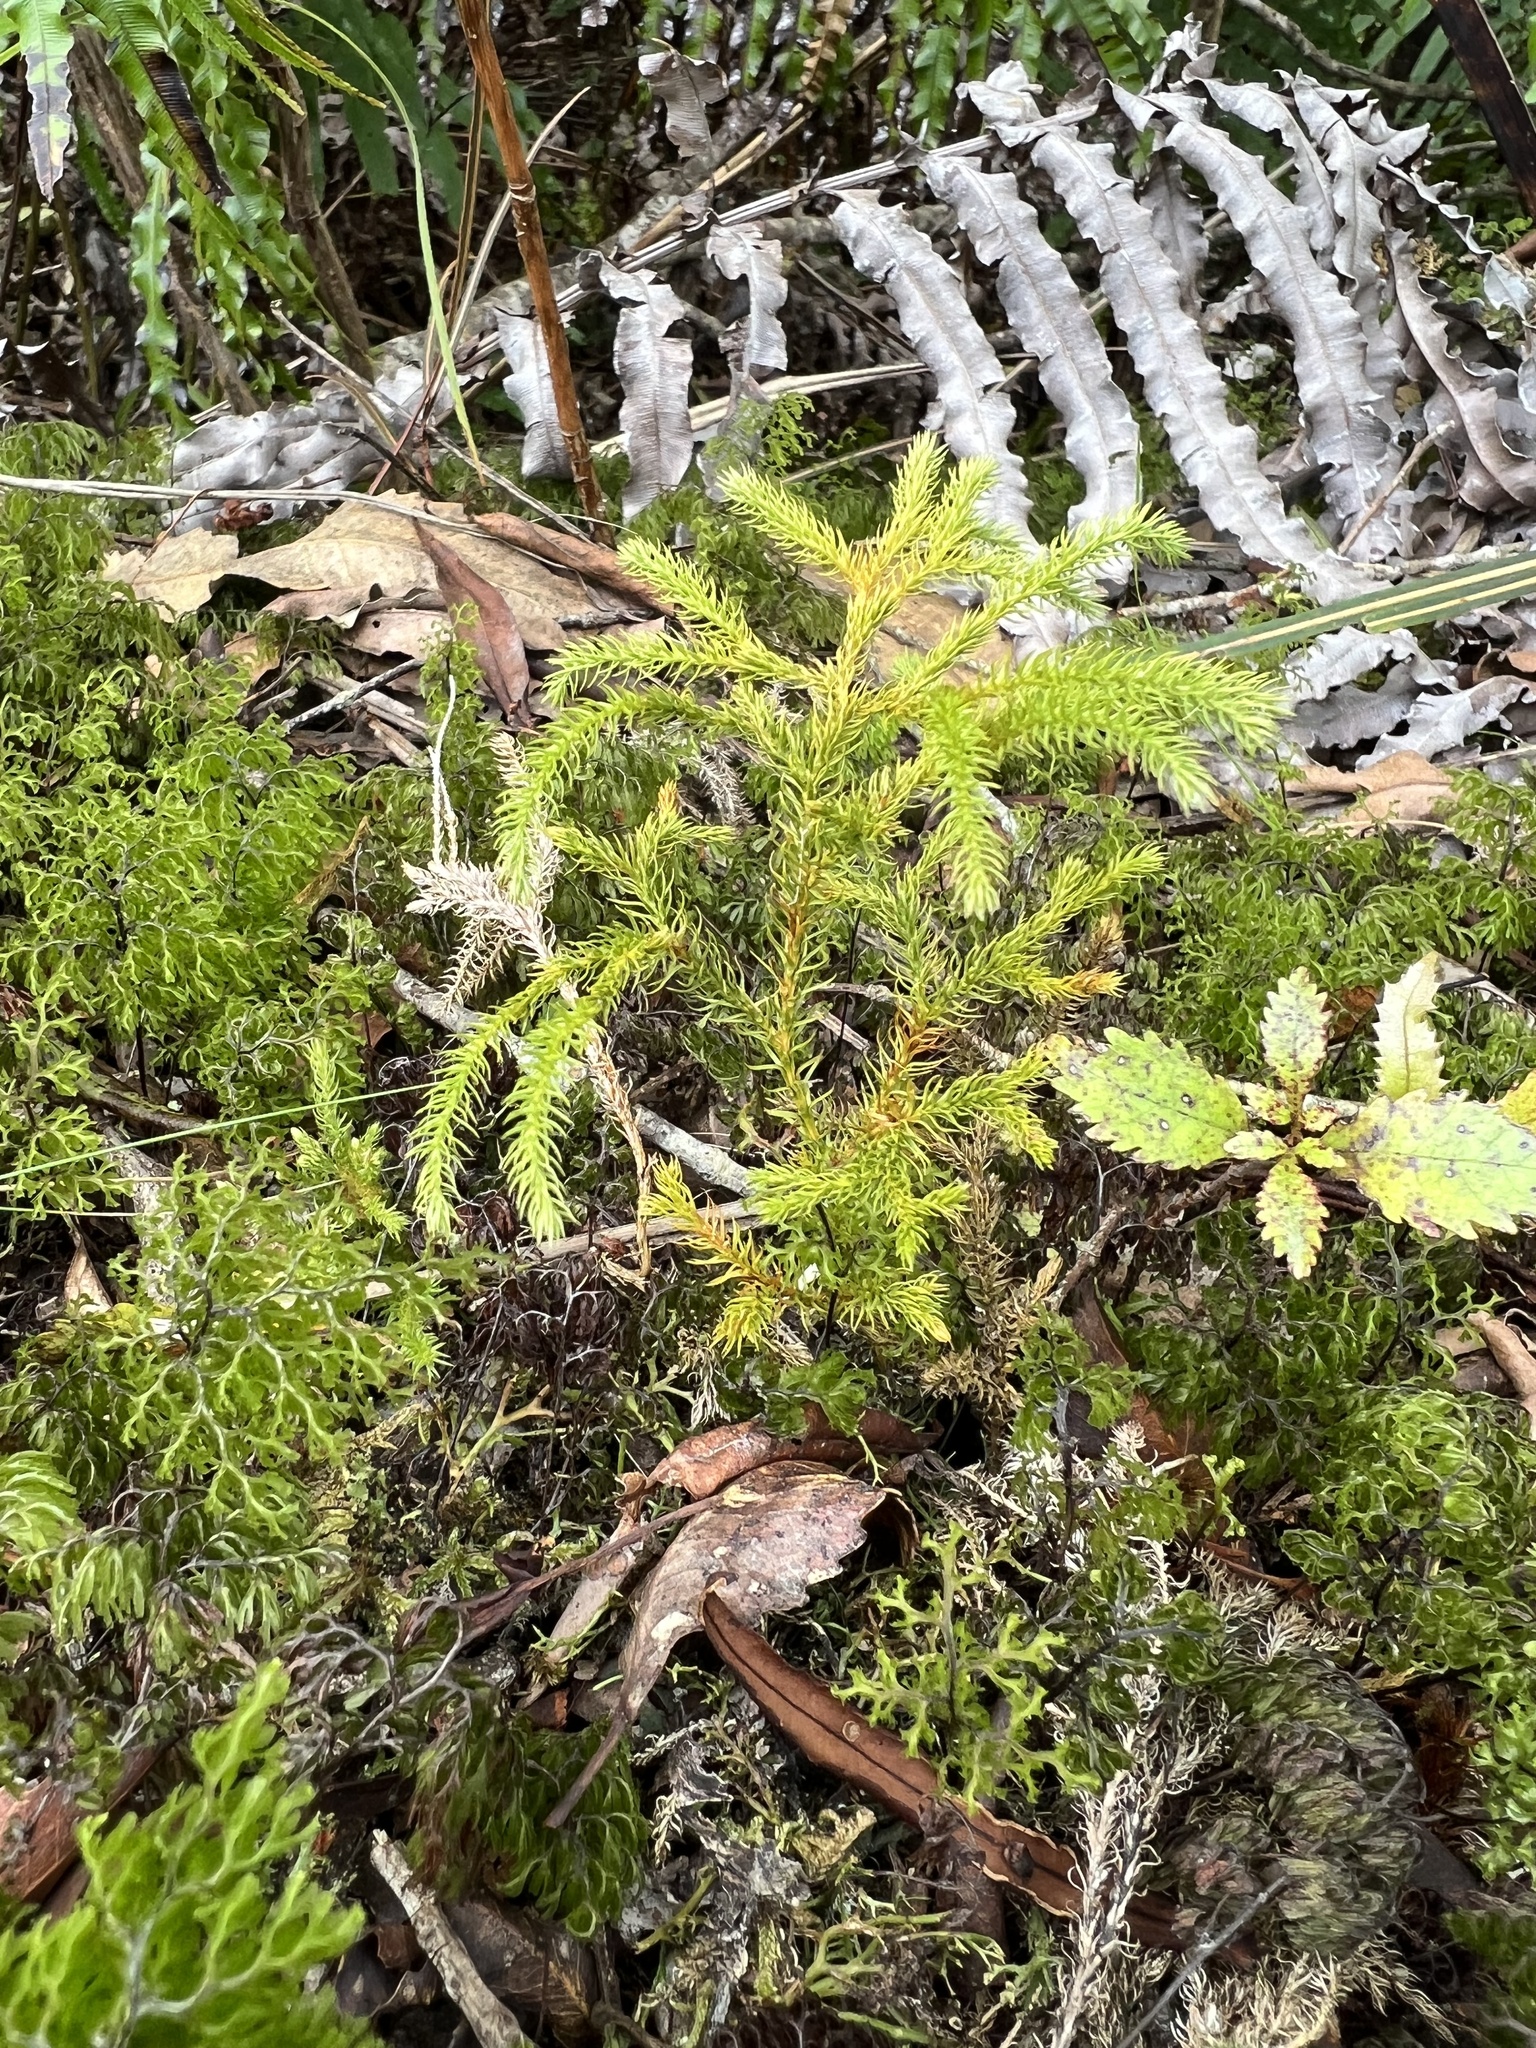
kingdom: Plantae
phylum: Tracheophyta
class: Lycopodiopsida
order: Lycopodiales
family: Lycopodiaceae
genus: Austrolycopodium
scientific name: Austrolycopodium fastigiatum
